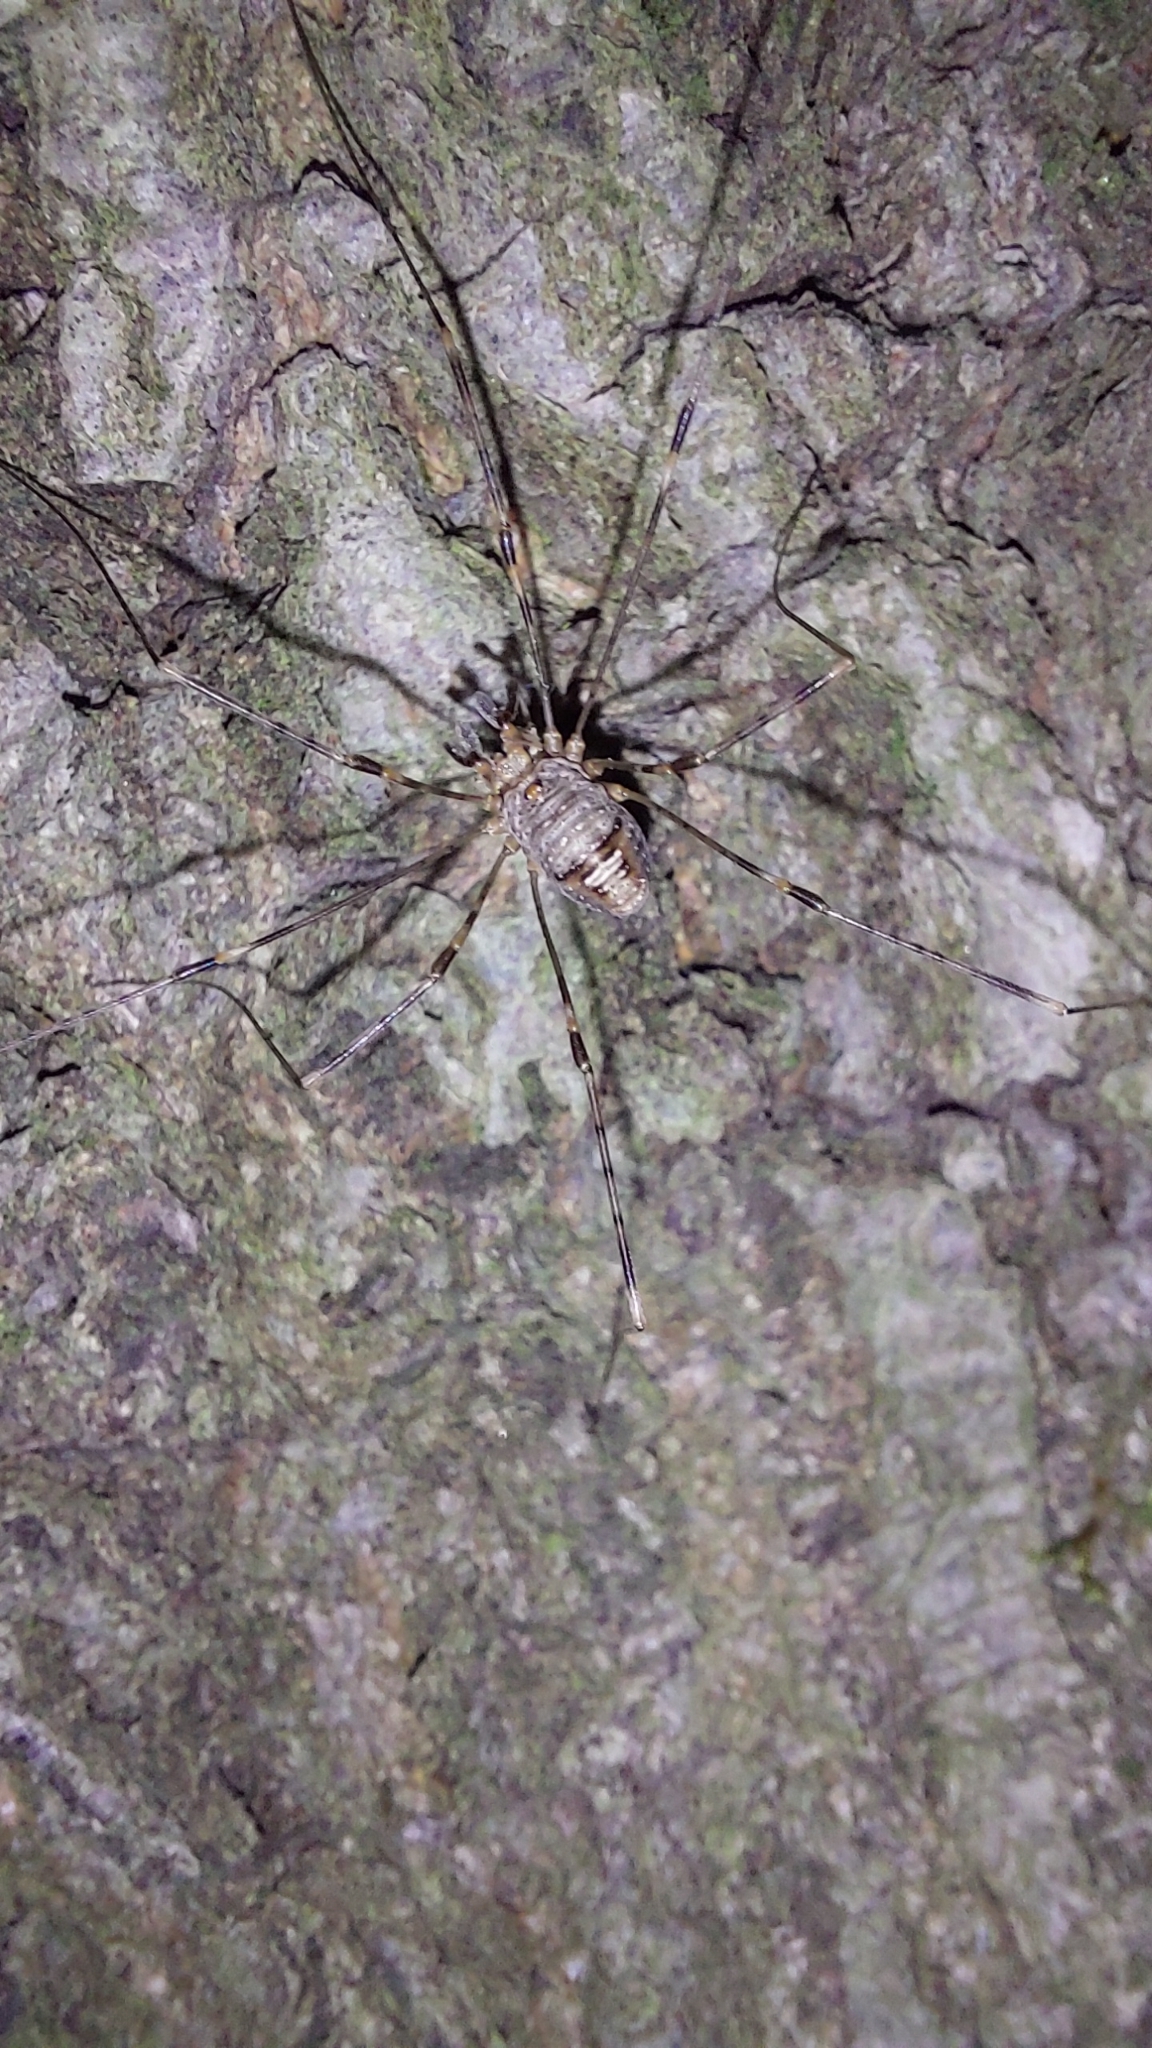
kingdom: Animalia
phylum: Arthropoda
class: Arachnida
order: Opiliones
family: Phalangiidae
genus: Dicranopalpus
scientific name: Dicranopalpus ramosus
